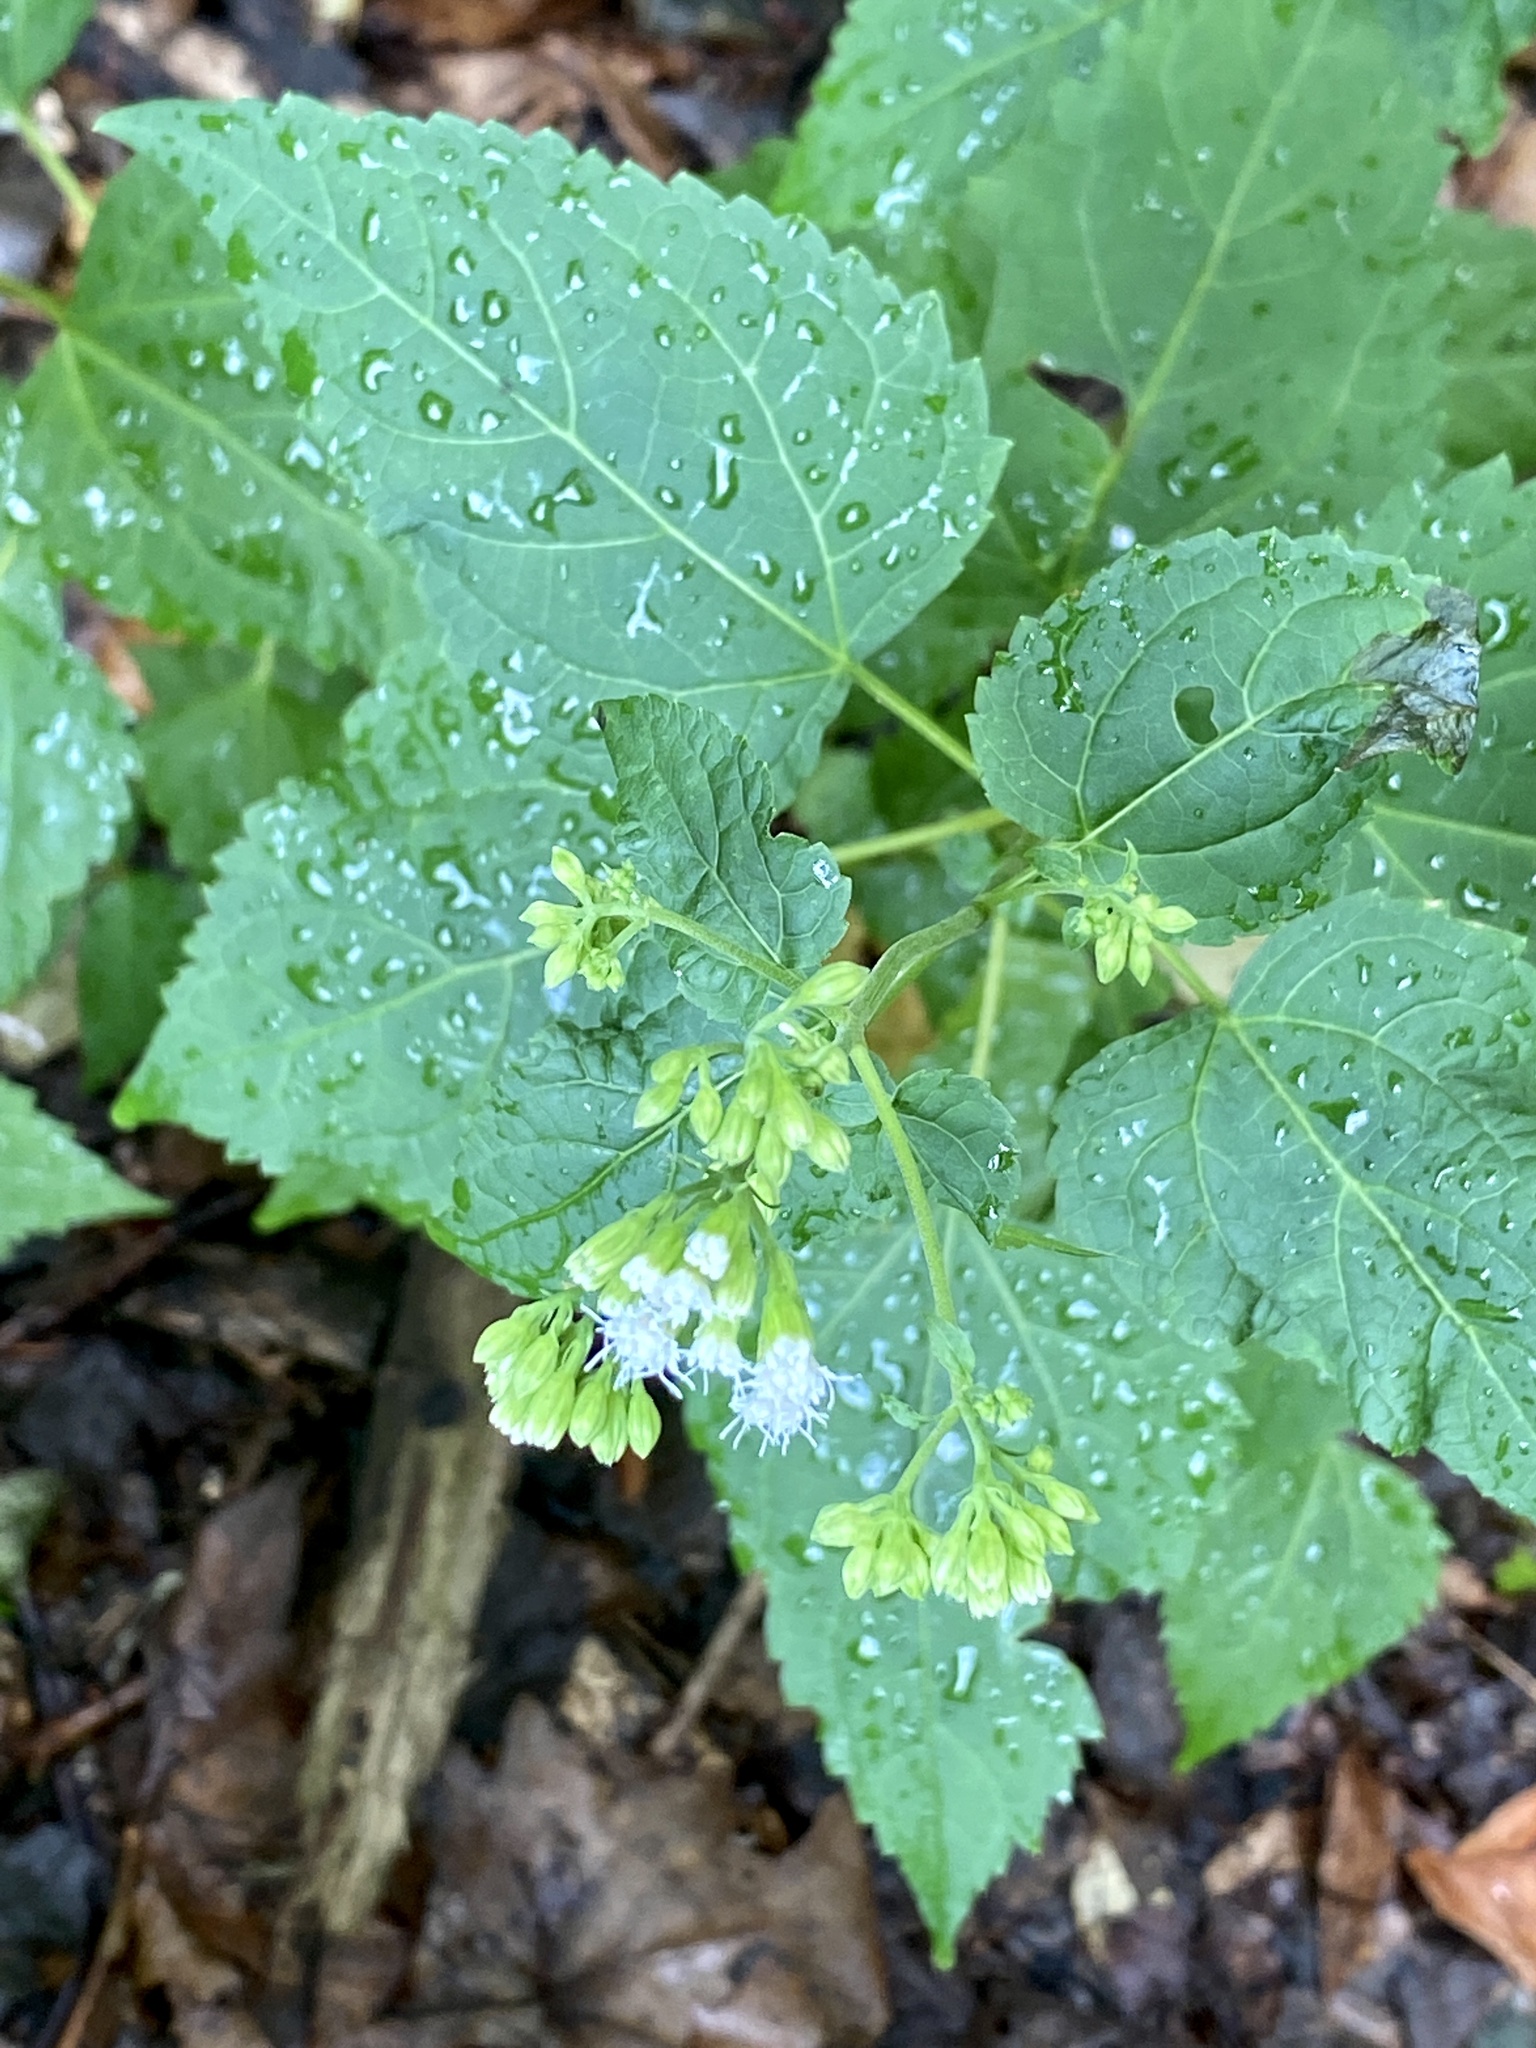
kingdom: Plantae
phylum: Tracheophyta
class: Magnoliopsida
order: Asterales
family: Asteraceae
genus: Ageratina
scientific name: Ageratina altissima
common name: White snakeroot
